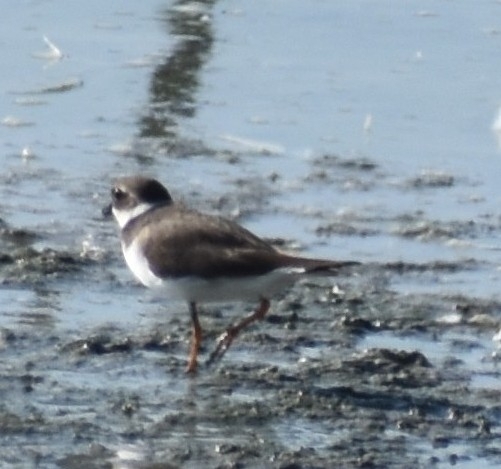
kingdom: Animalia
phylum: Chordata
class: Aves
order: Charadriiformes
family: Charadriidae
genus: Charadrius
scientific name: Charadrius hiaticula
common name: Common ringed plover
